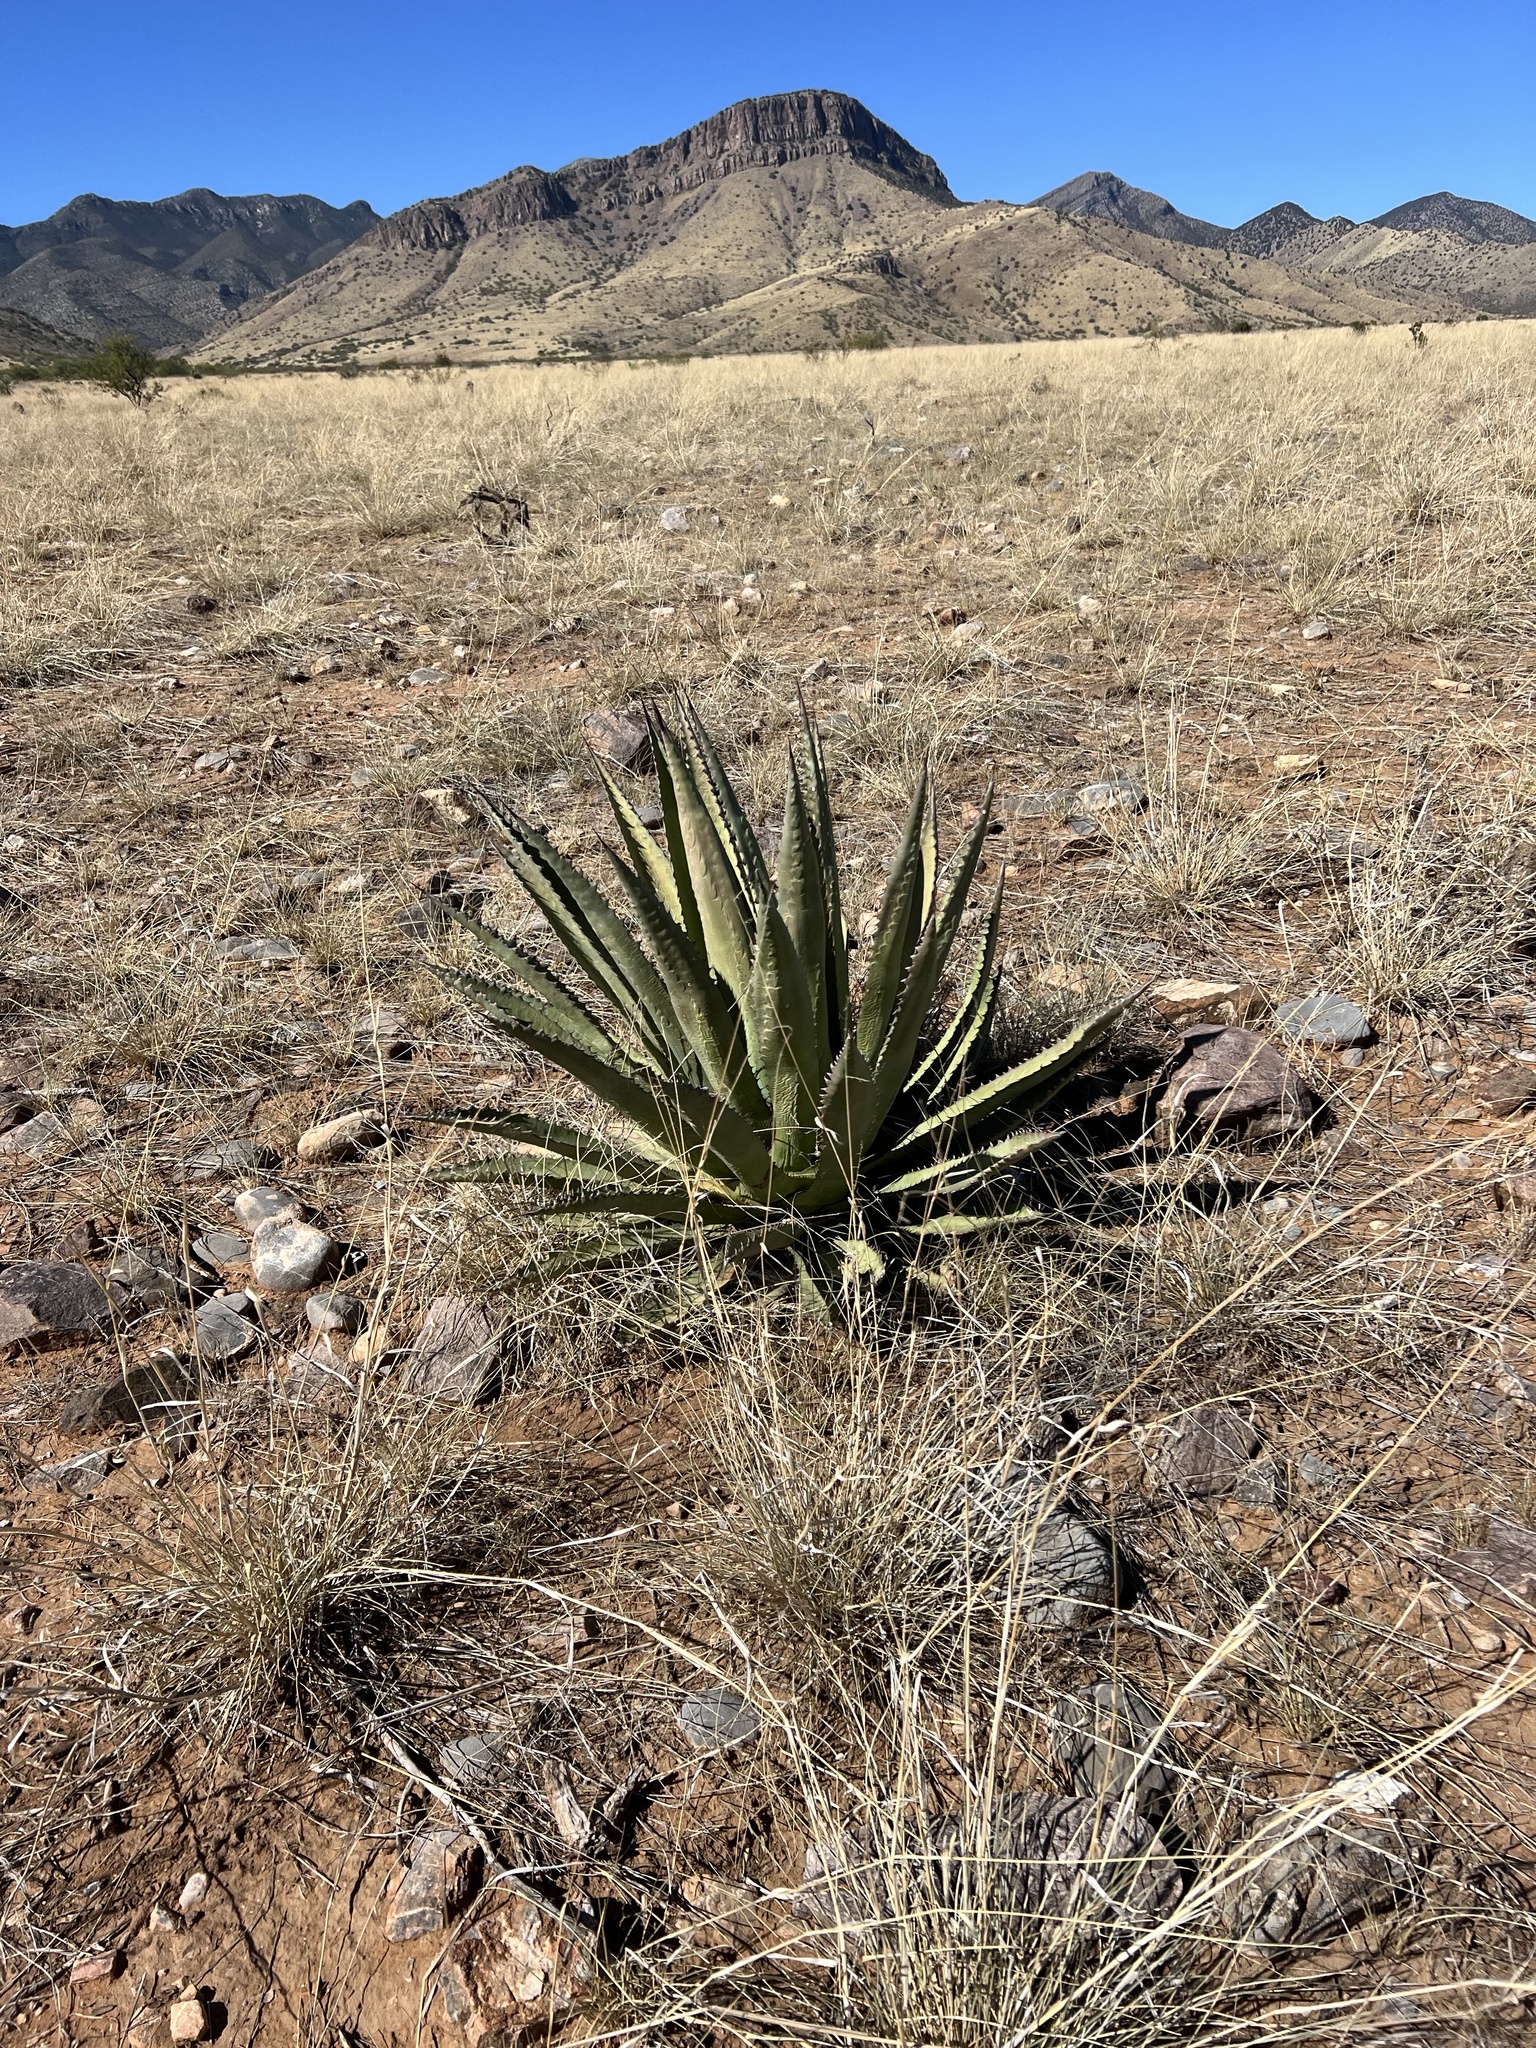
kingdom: Plantae
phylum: Tracheophyta
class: Liliopsida
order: Asparagales
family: Asparagaceae
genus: Agave
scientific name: Agave palmeri
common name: Palmer agave
